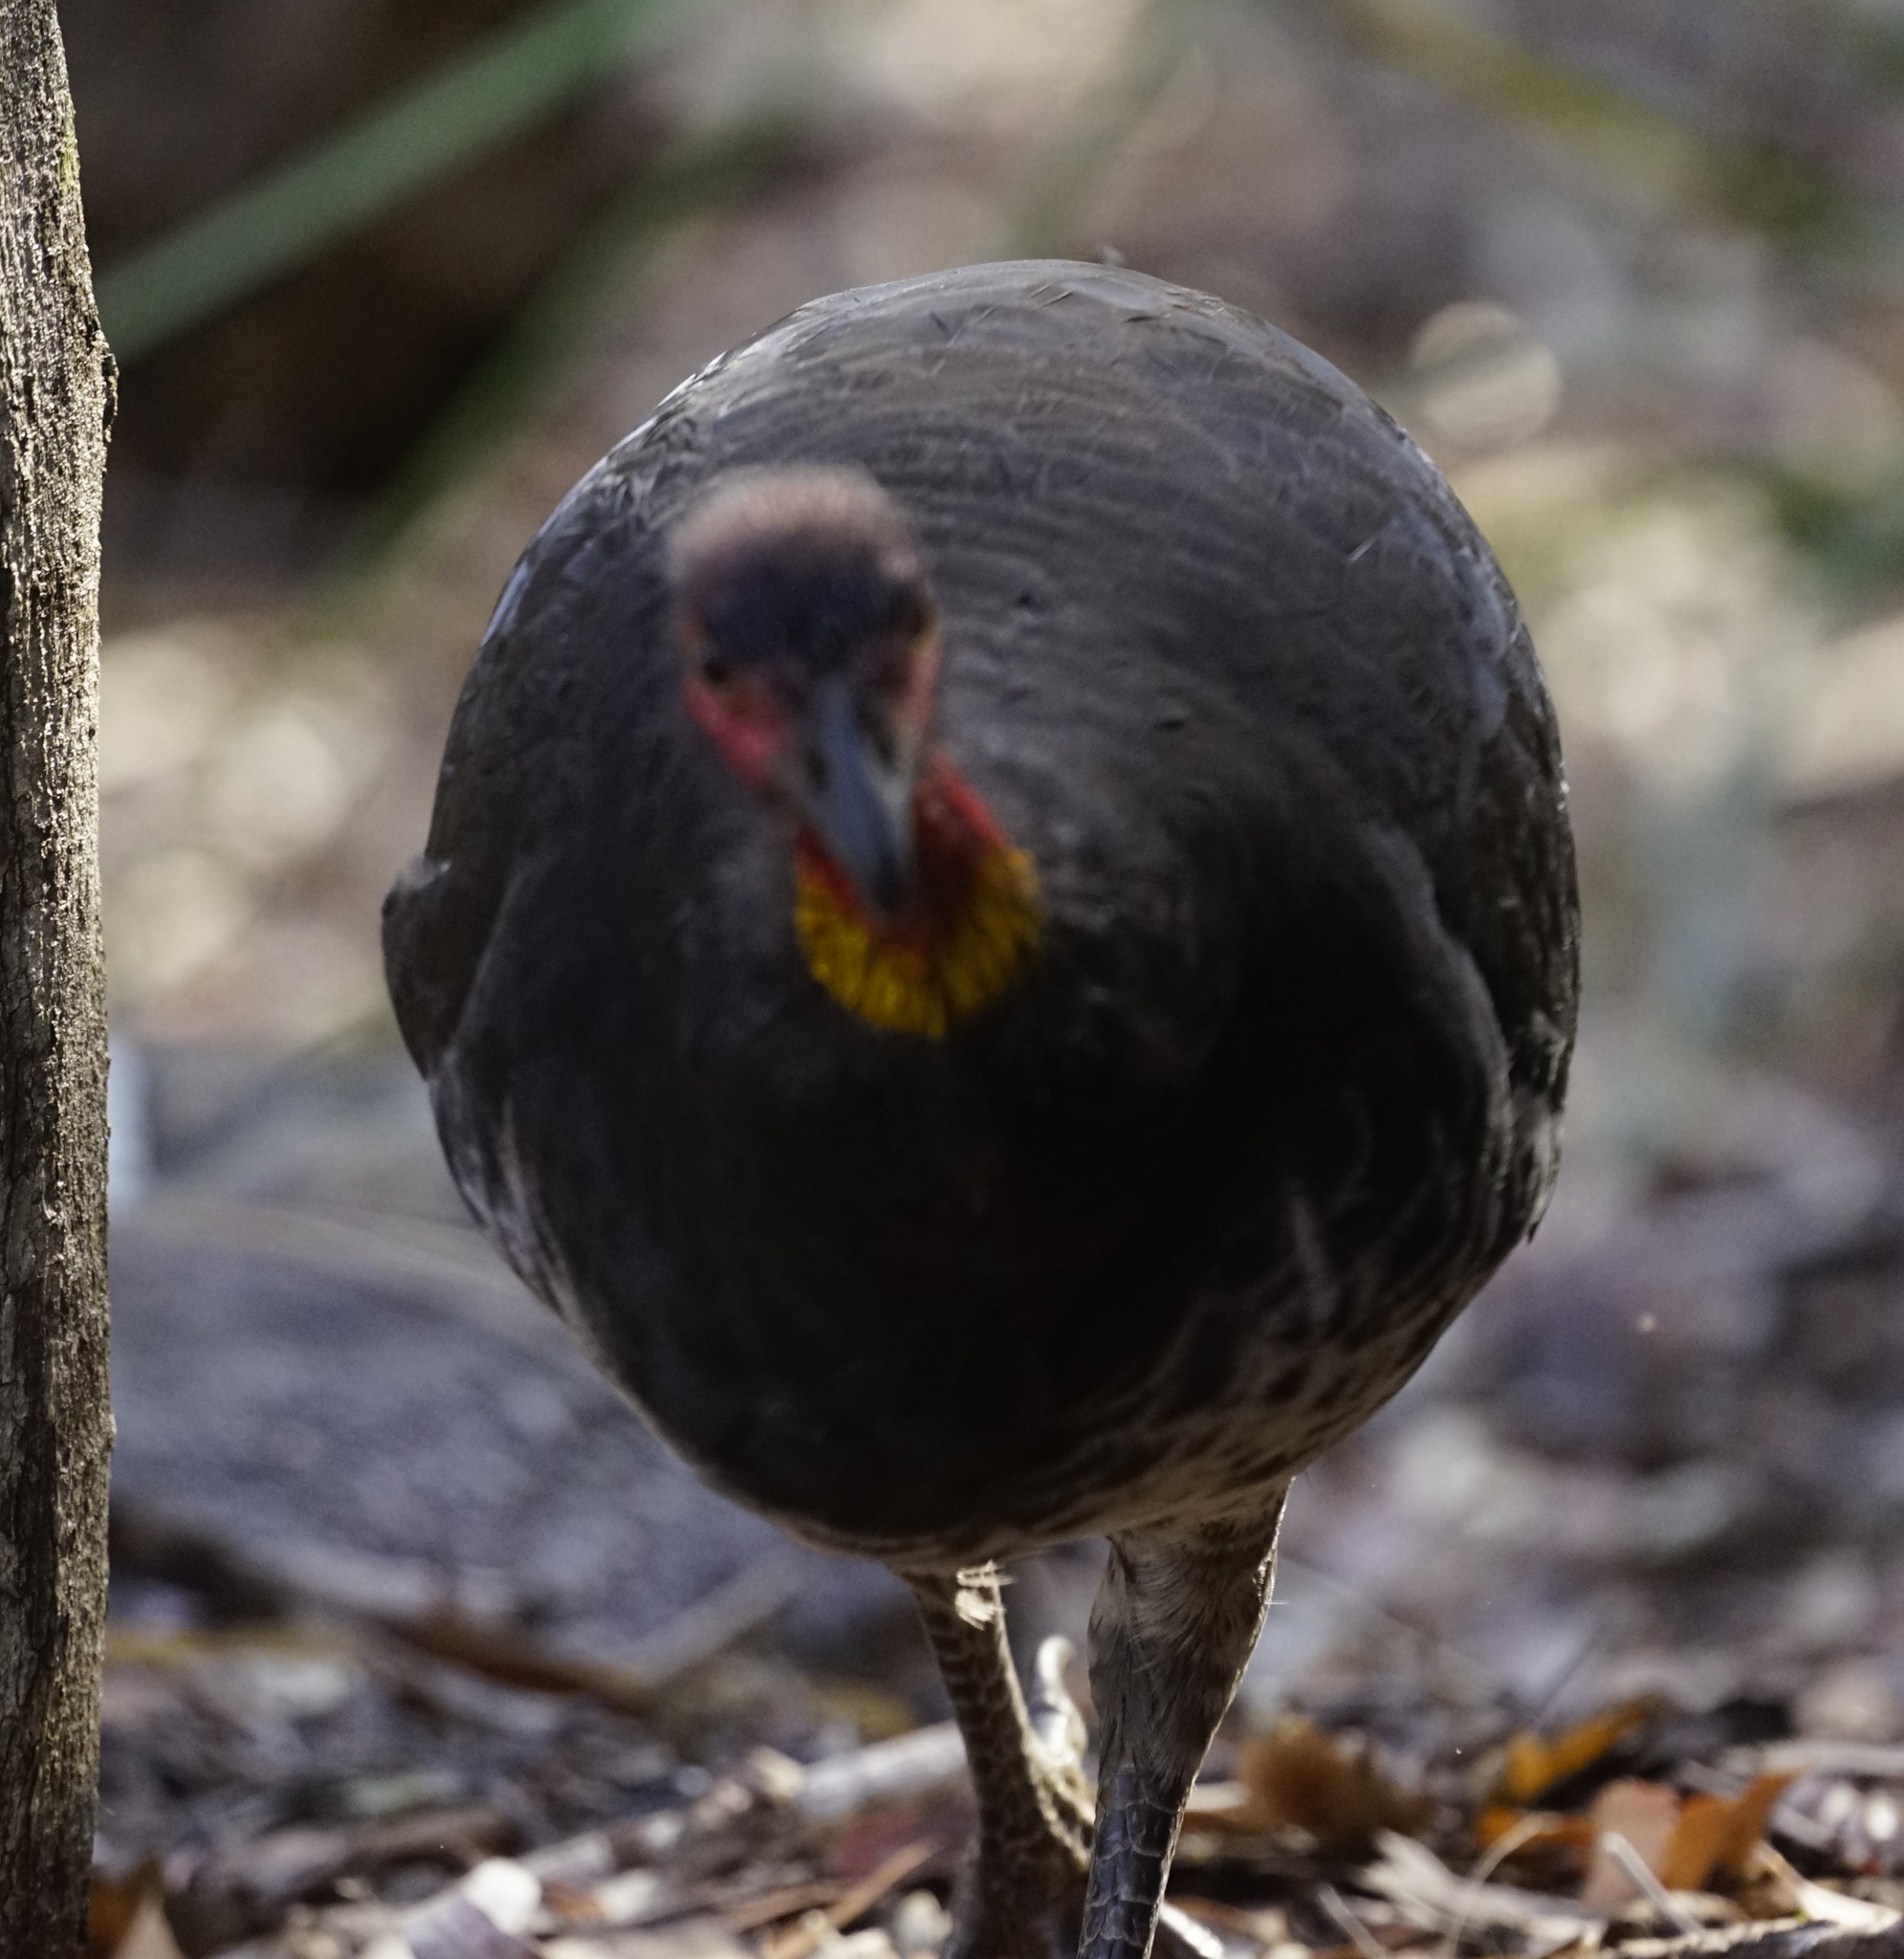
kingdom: Animalia
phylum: Chordata
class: Aves
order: Galliformes
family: Megapodiidae
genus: Alectura
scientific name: Alectura lathami
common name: Australian brushturkey
